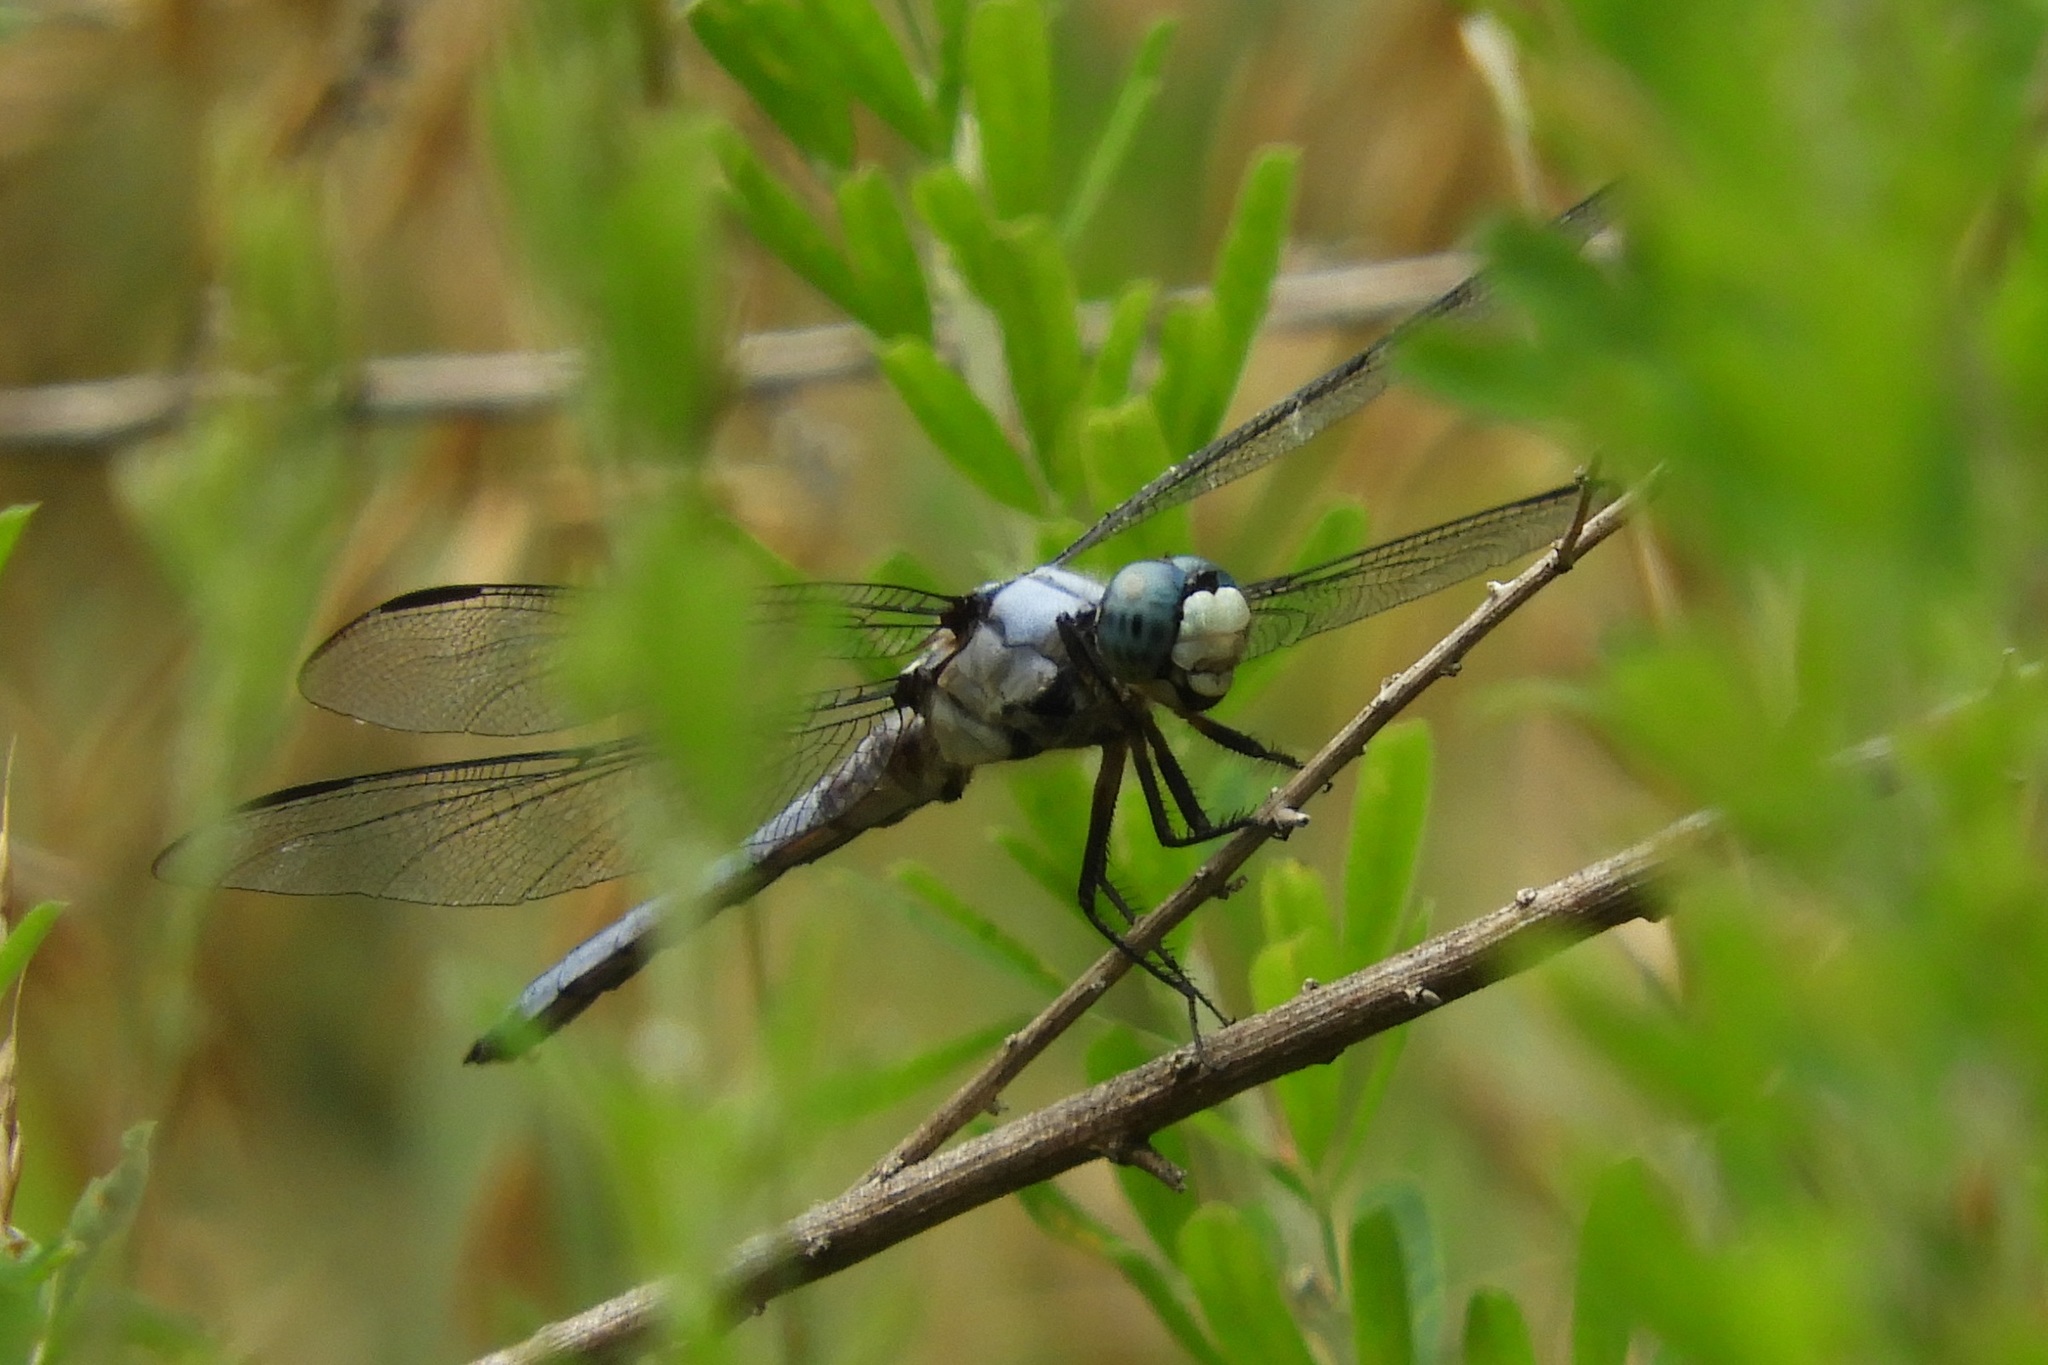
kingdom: Animalia
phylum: Arthropoda
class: Insecta
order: Odonata
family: Libellulidae
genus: Libellula
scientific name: Libellula vibrans
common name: Great blue skimmer
